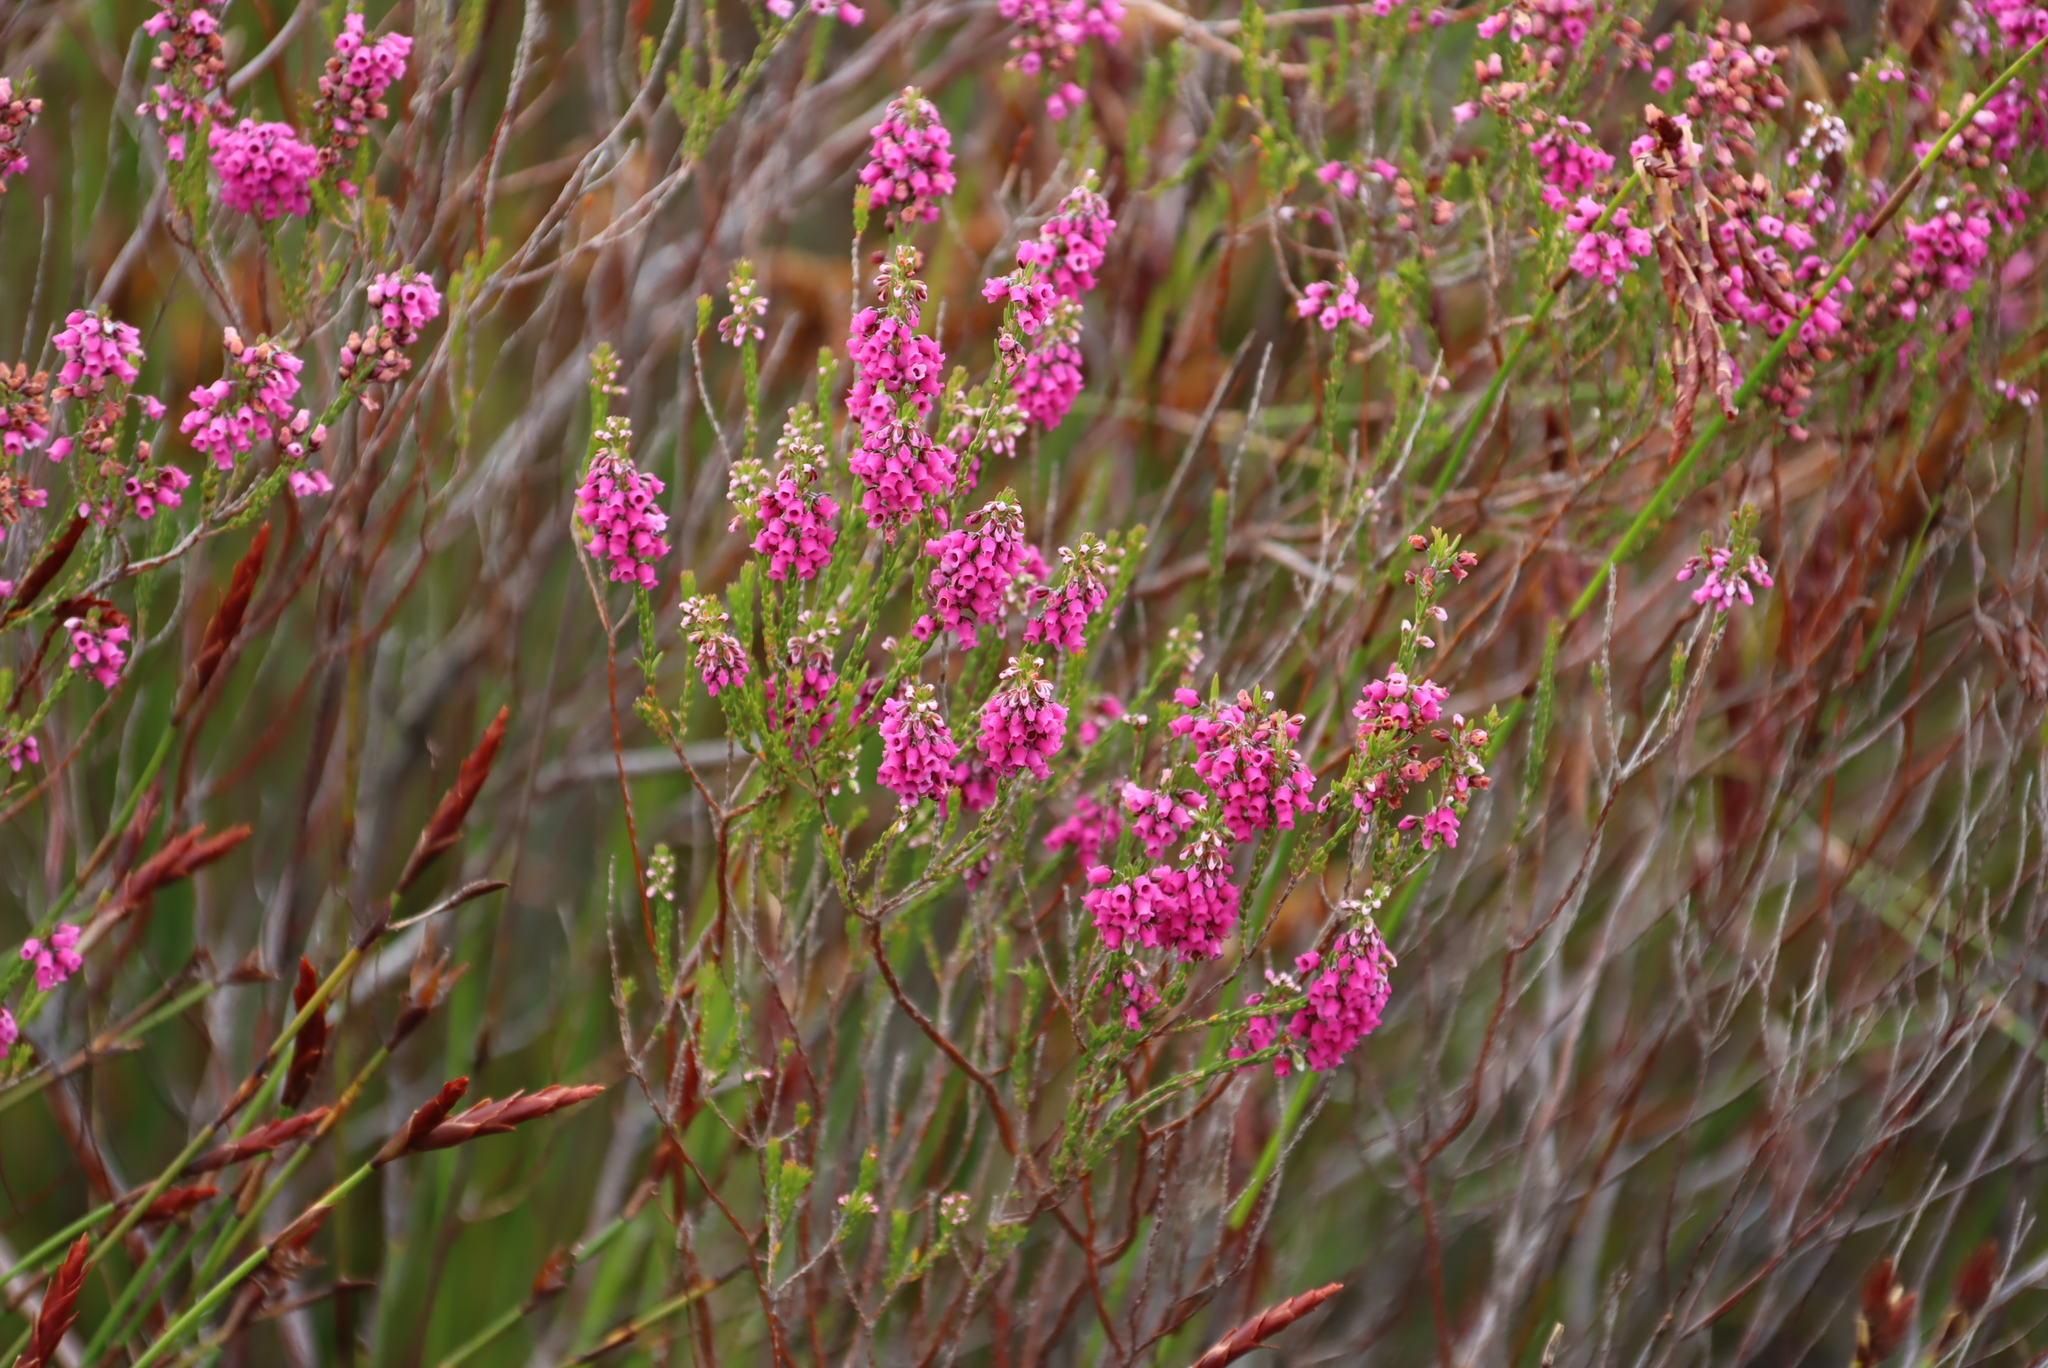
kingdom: Plantae
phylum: Tracheophyta
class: Magnoliopsida
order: Ericales
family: Ericaceae
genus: Erica
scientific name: Erica pulchella
